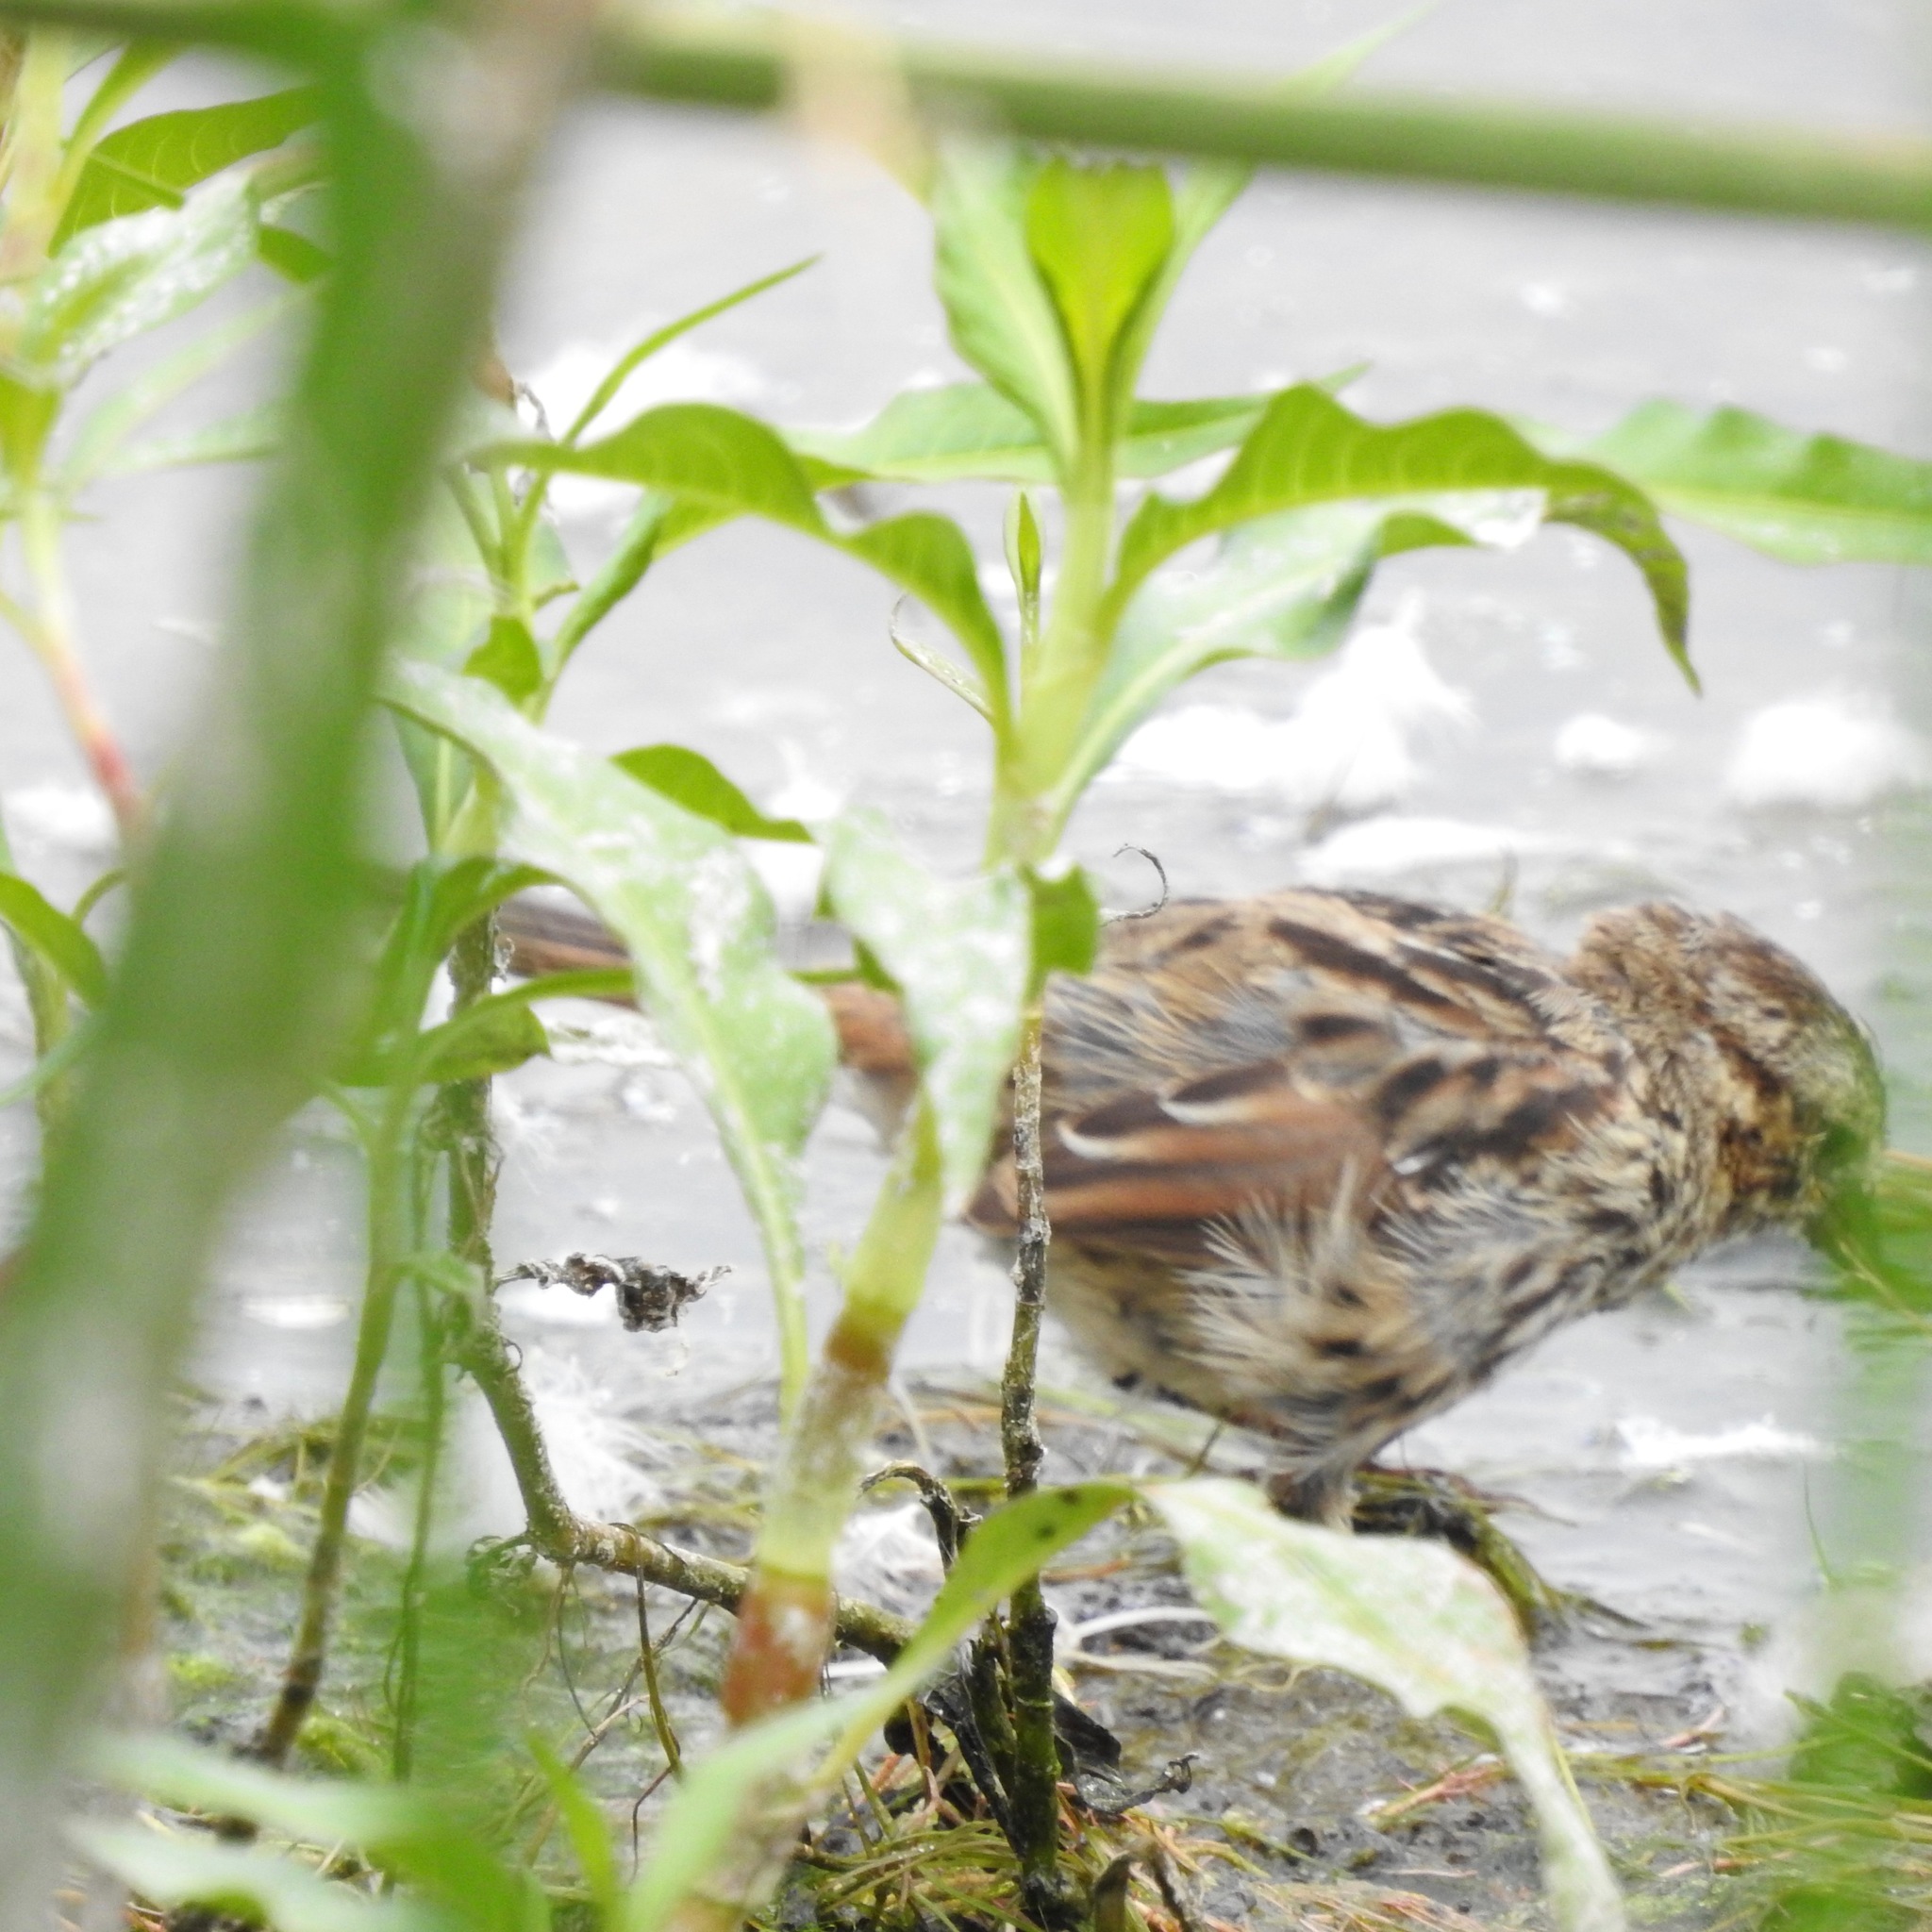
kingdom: Animalia
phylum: Chordata
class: Aves
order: Passeriformes
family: Passerellidae
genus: Melospiza
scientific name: Melospiza melodia
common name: Song sparrow
